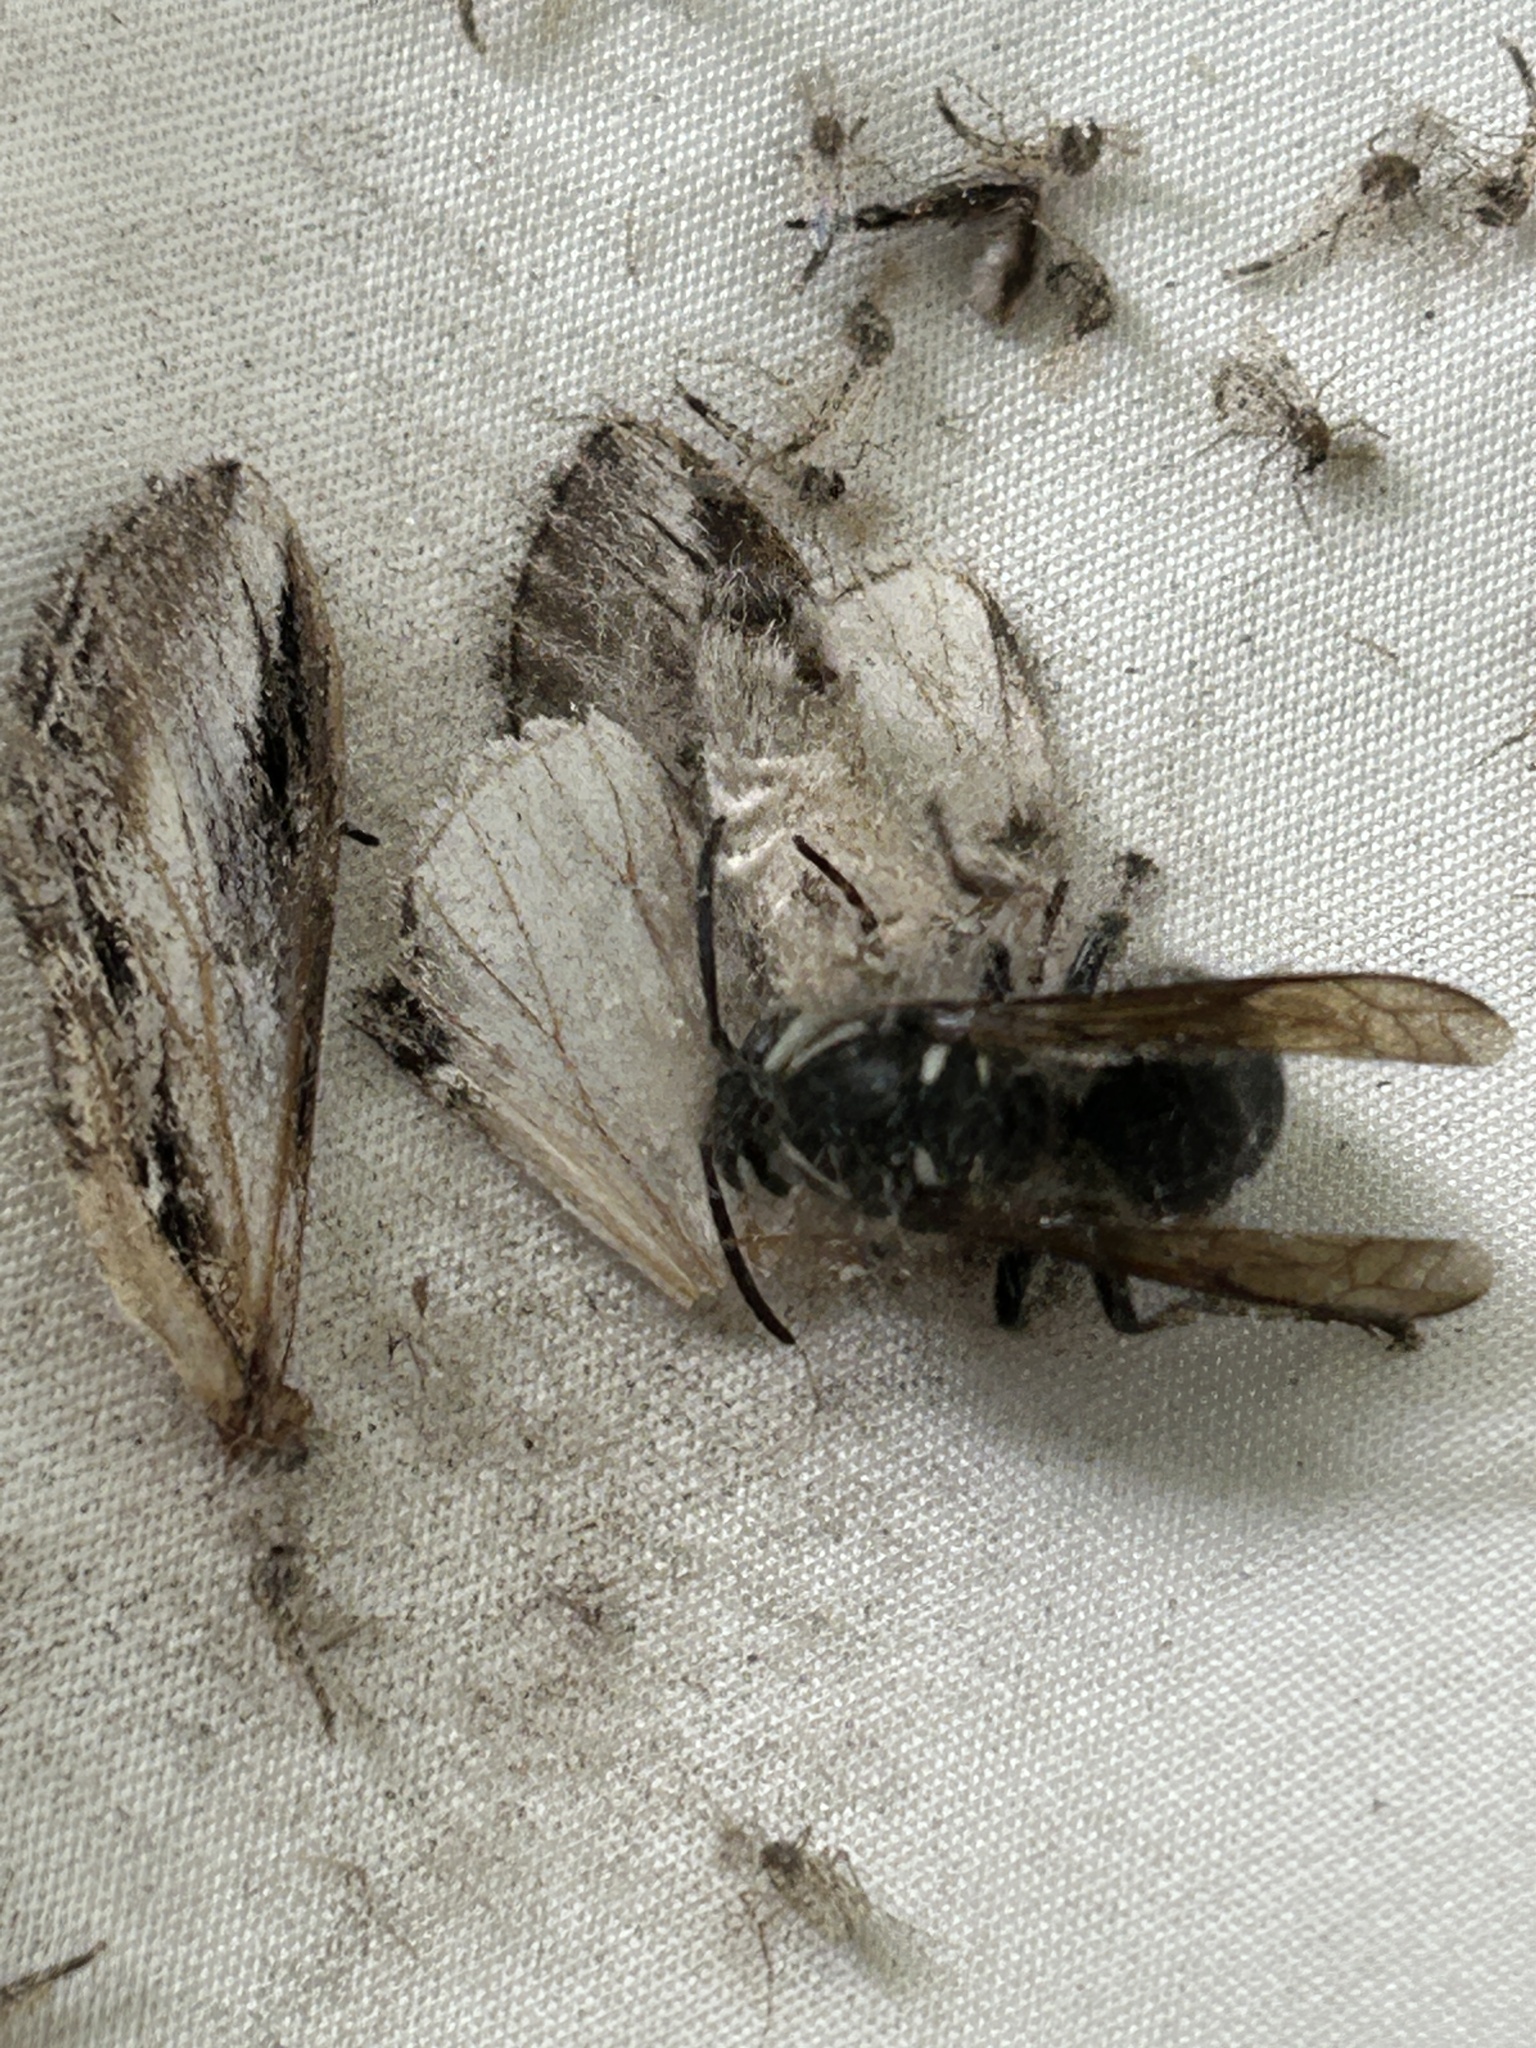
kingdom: Animalia
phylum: Arthropoda
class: Insecta
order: Hymenoptera
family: Vespidae
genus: Dolichovespula
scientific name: Dolichovespula maculata
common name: Bald-faced hornet
